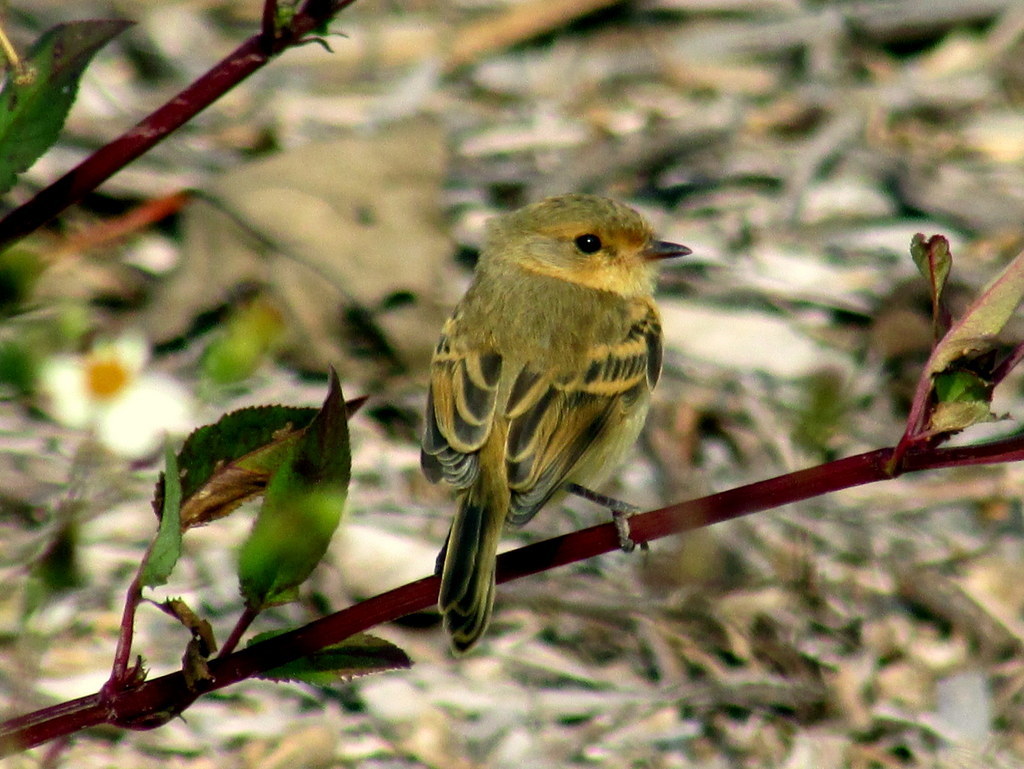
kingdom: Animalia
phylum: Chordata
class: Aves
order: Passeriformes
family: Tyrannidae
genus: Polystictus
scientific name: Polystictus pectoralis
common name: Bearded tachuri
